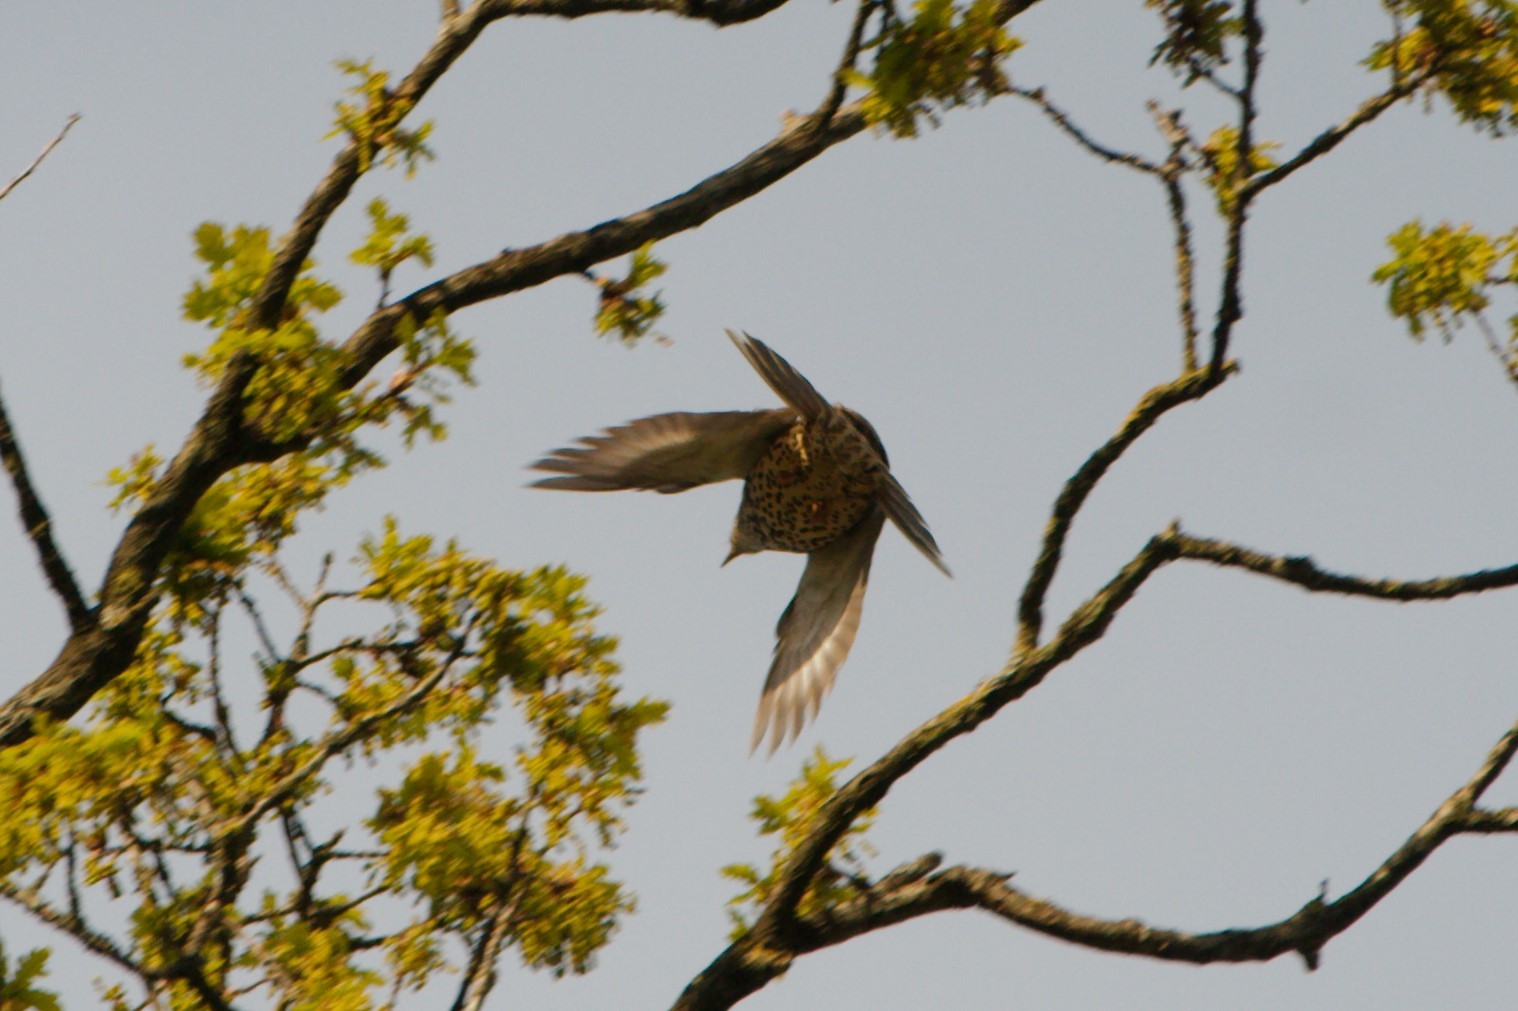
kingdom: Animalia
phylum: Chordata
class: Aves
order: Passeriformes
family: Turdidae
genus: Turdus
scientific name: Turdus viscivorus
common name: Mistle thrush
